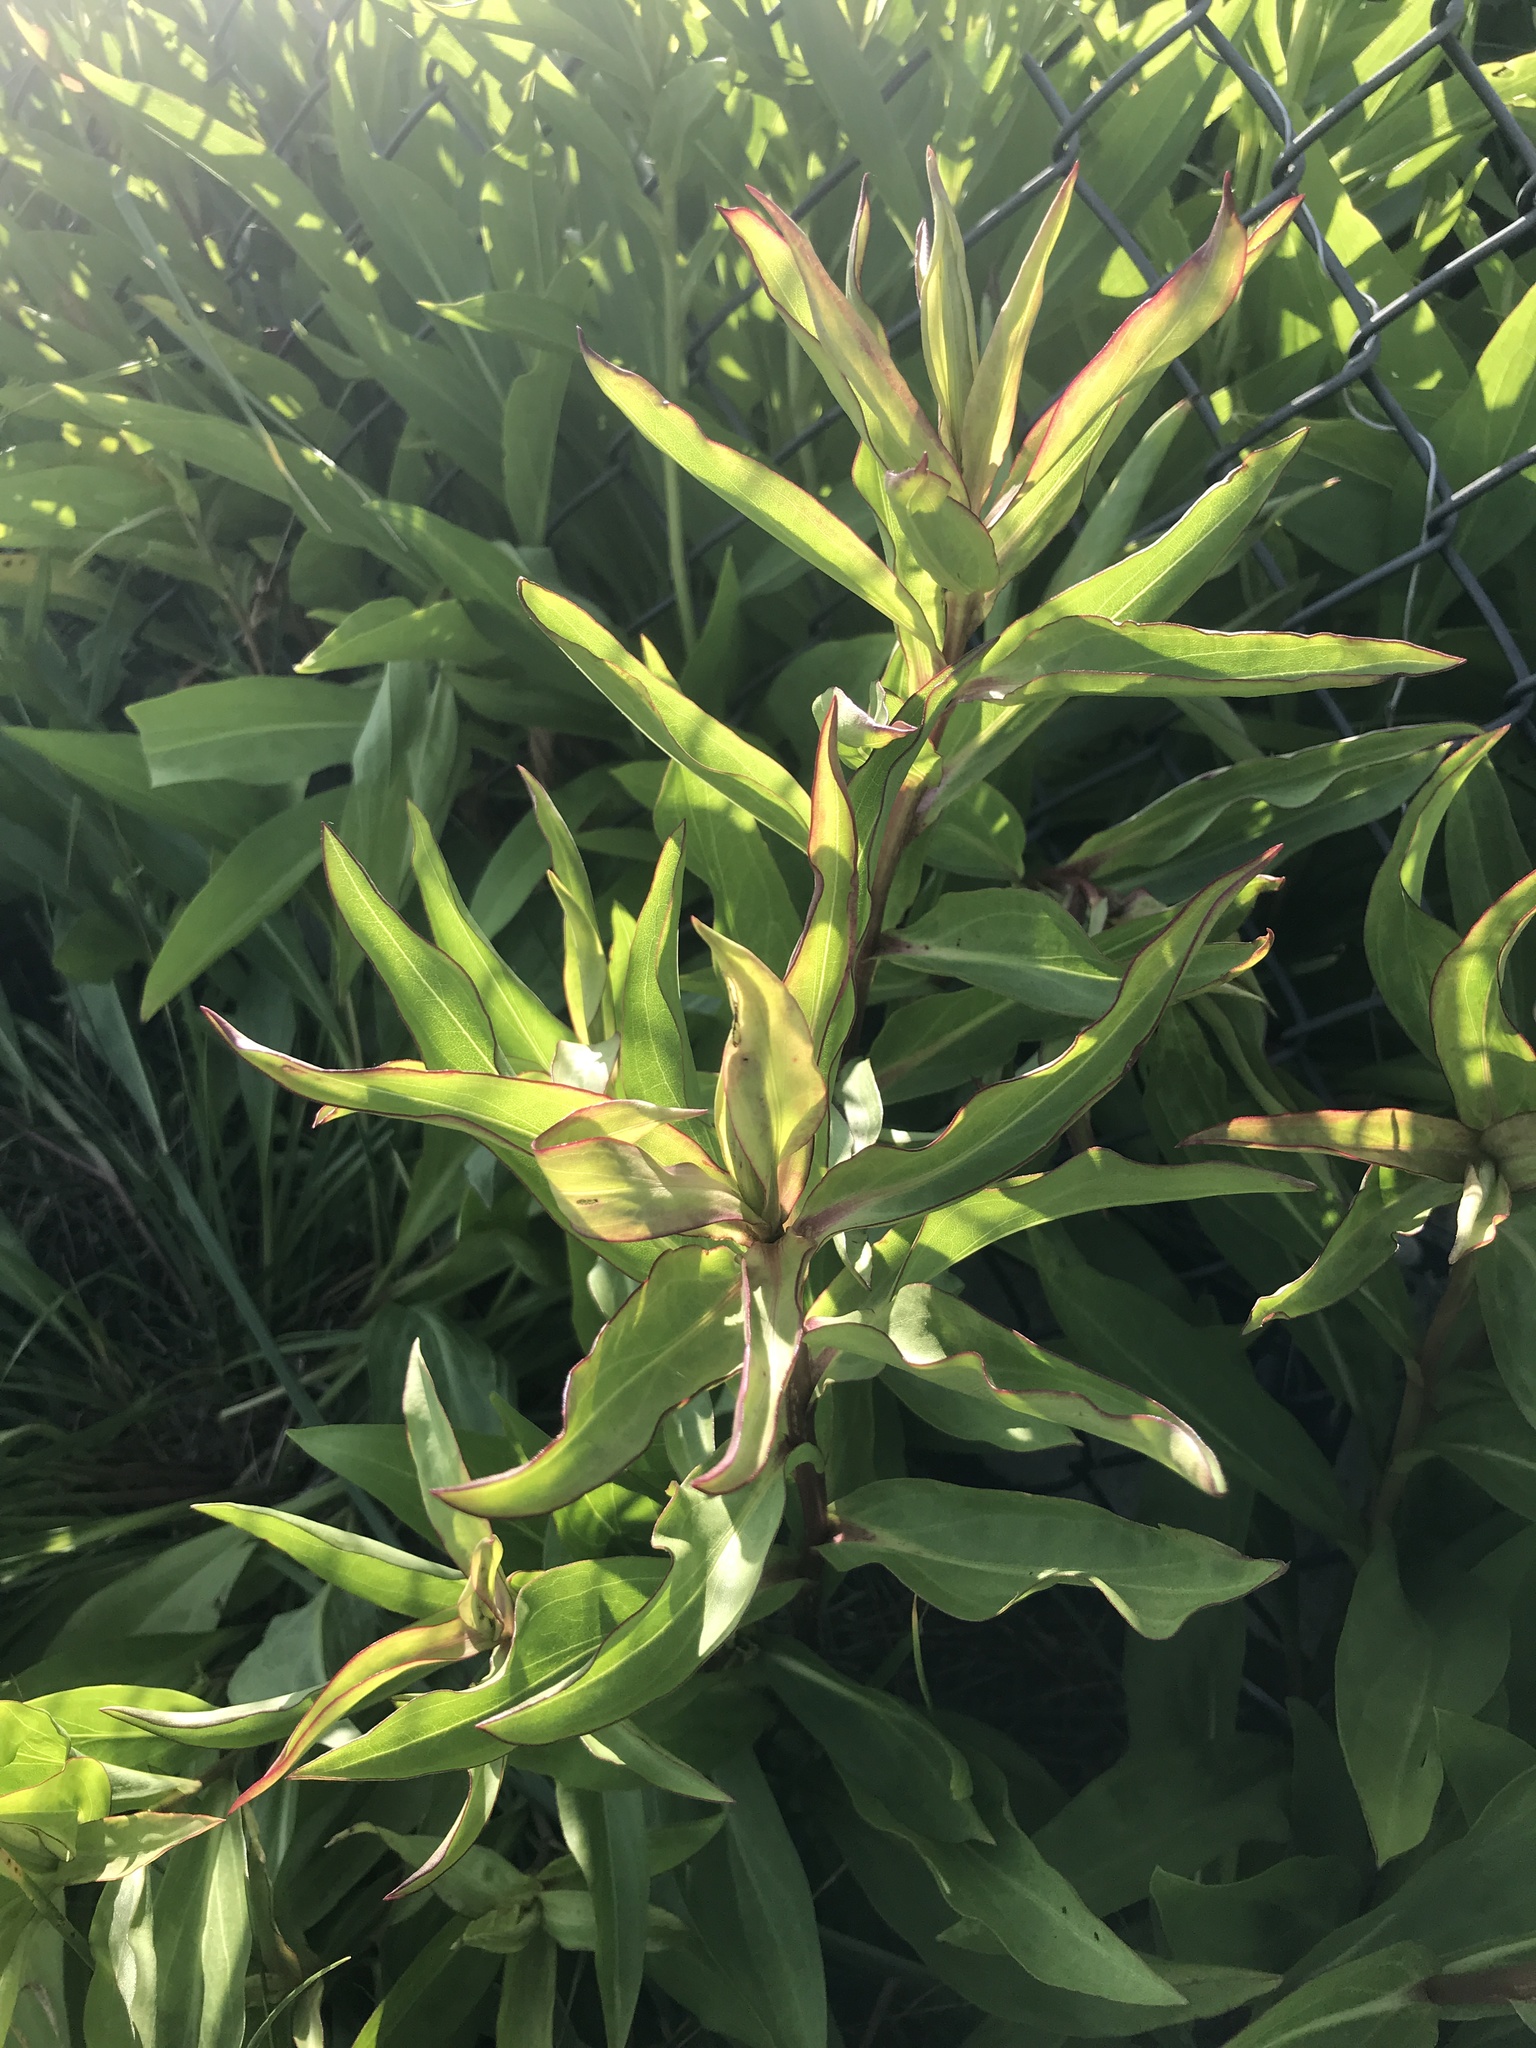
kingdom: Plantae
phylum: Tracheophyta
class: Magnoliopsida
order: Asterales
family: Asteraceae
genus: Solidago
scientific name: Solidago sempervirens
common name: Salt-marsh goldenrod
